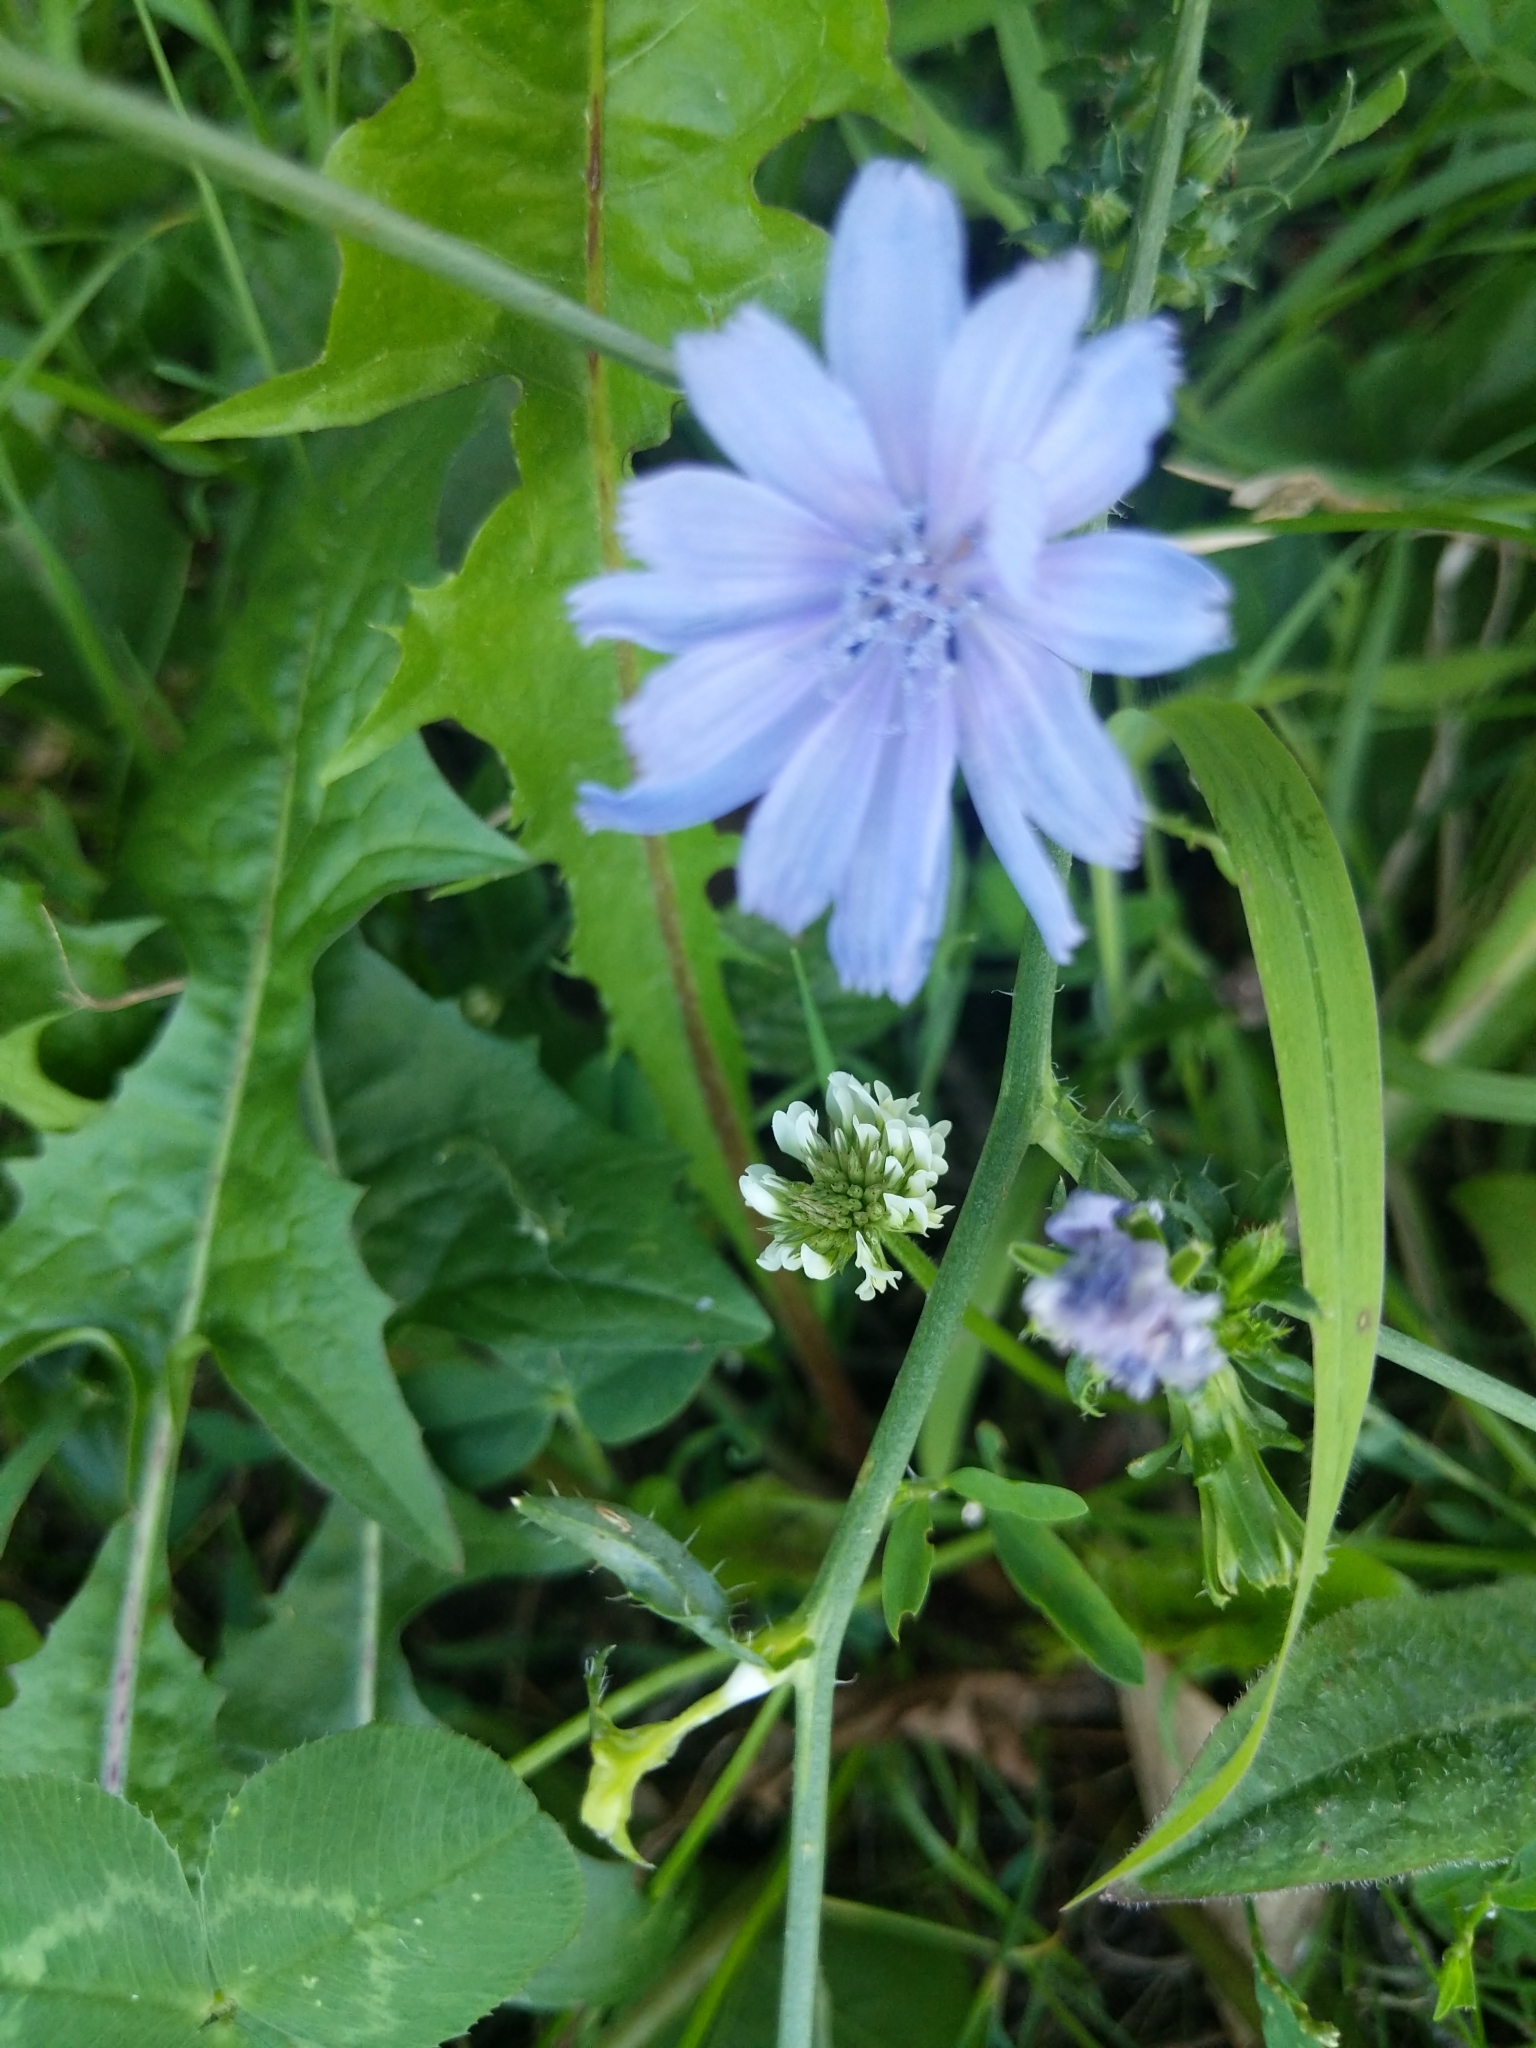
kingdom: Plantae
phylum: Tracheophyta
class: Magnoliopsida
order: Asterales
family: Asteraceae
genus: Cichorium
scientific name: Cichorium intybus
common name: Chicory
